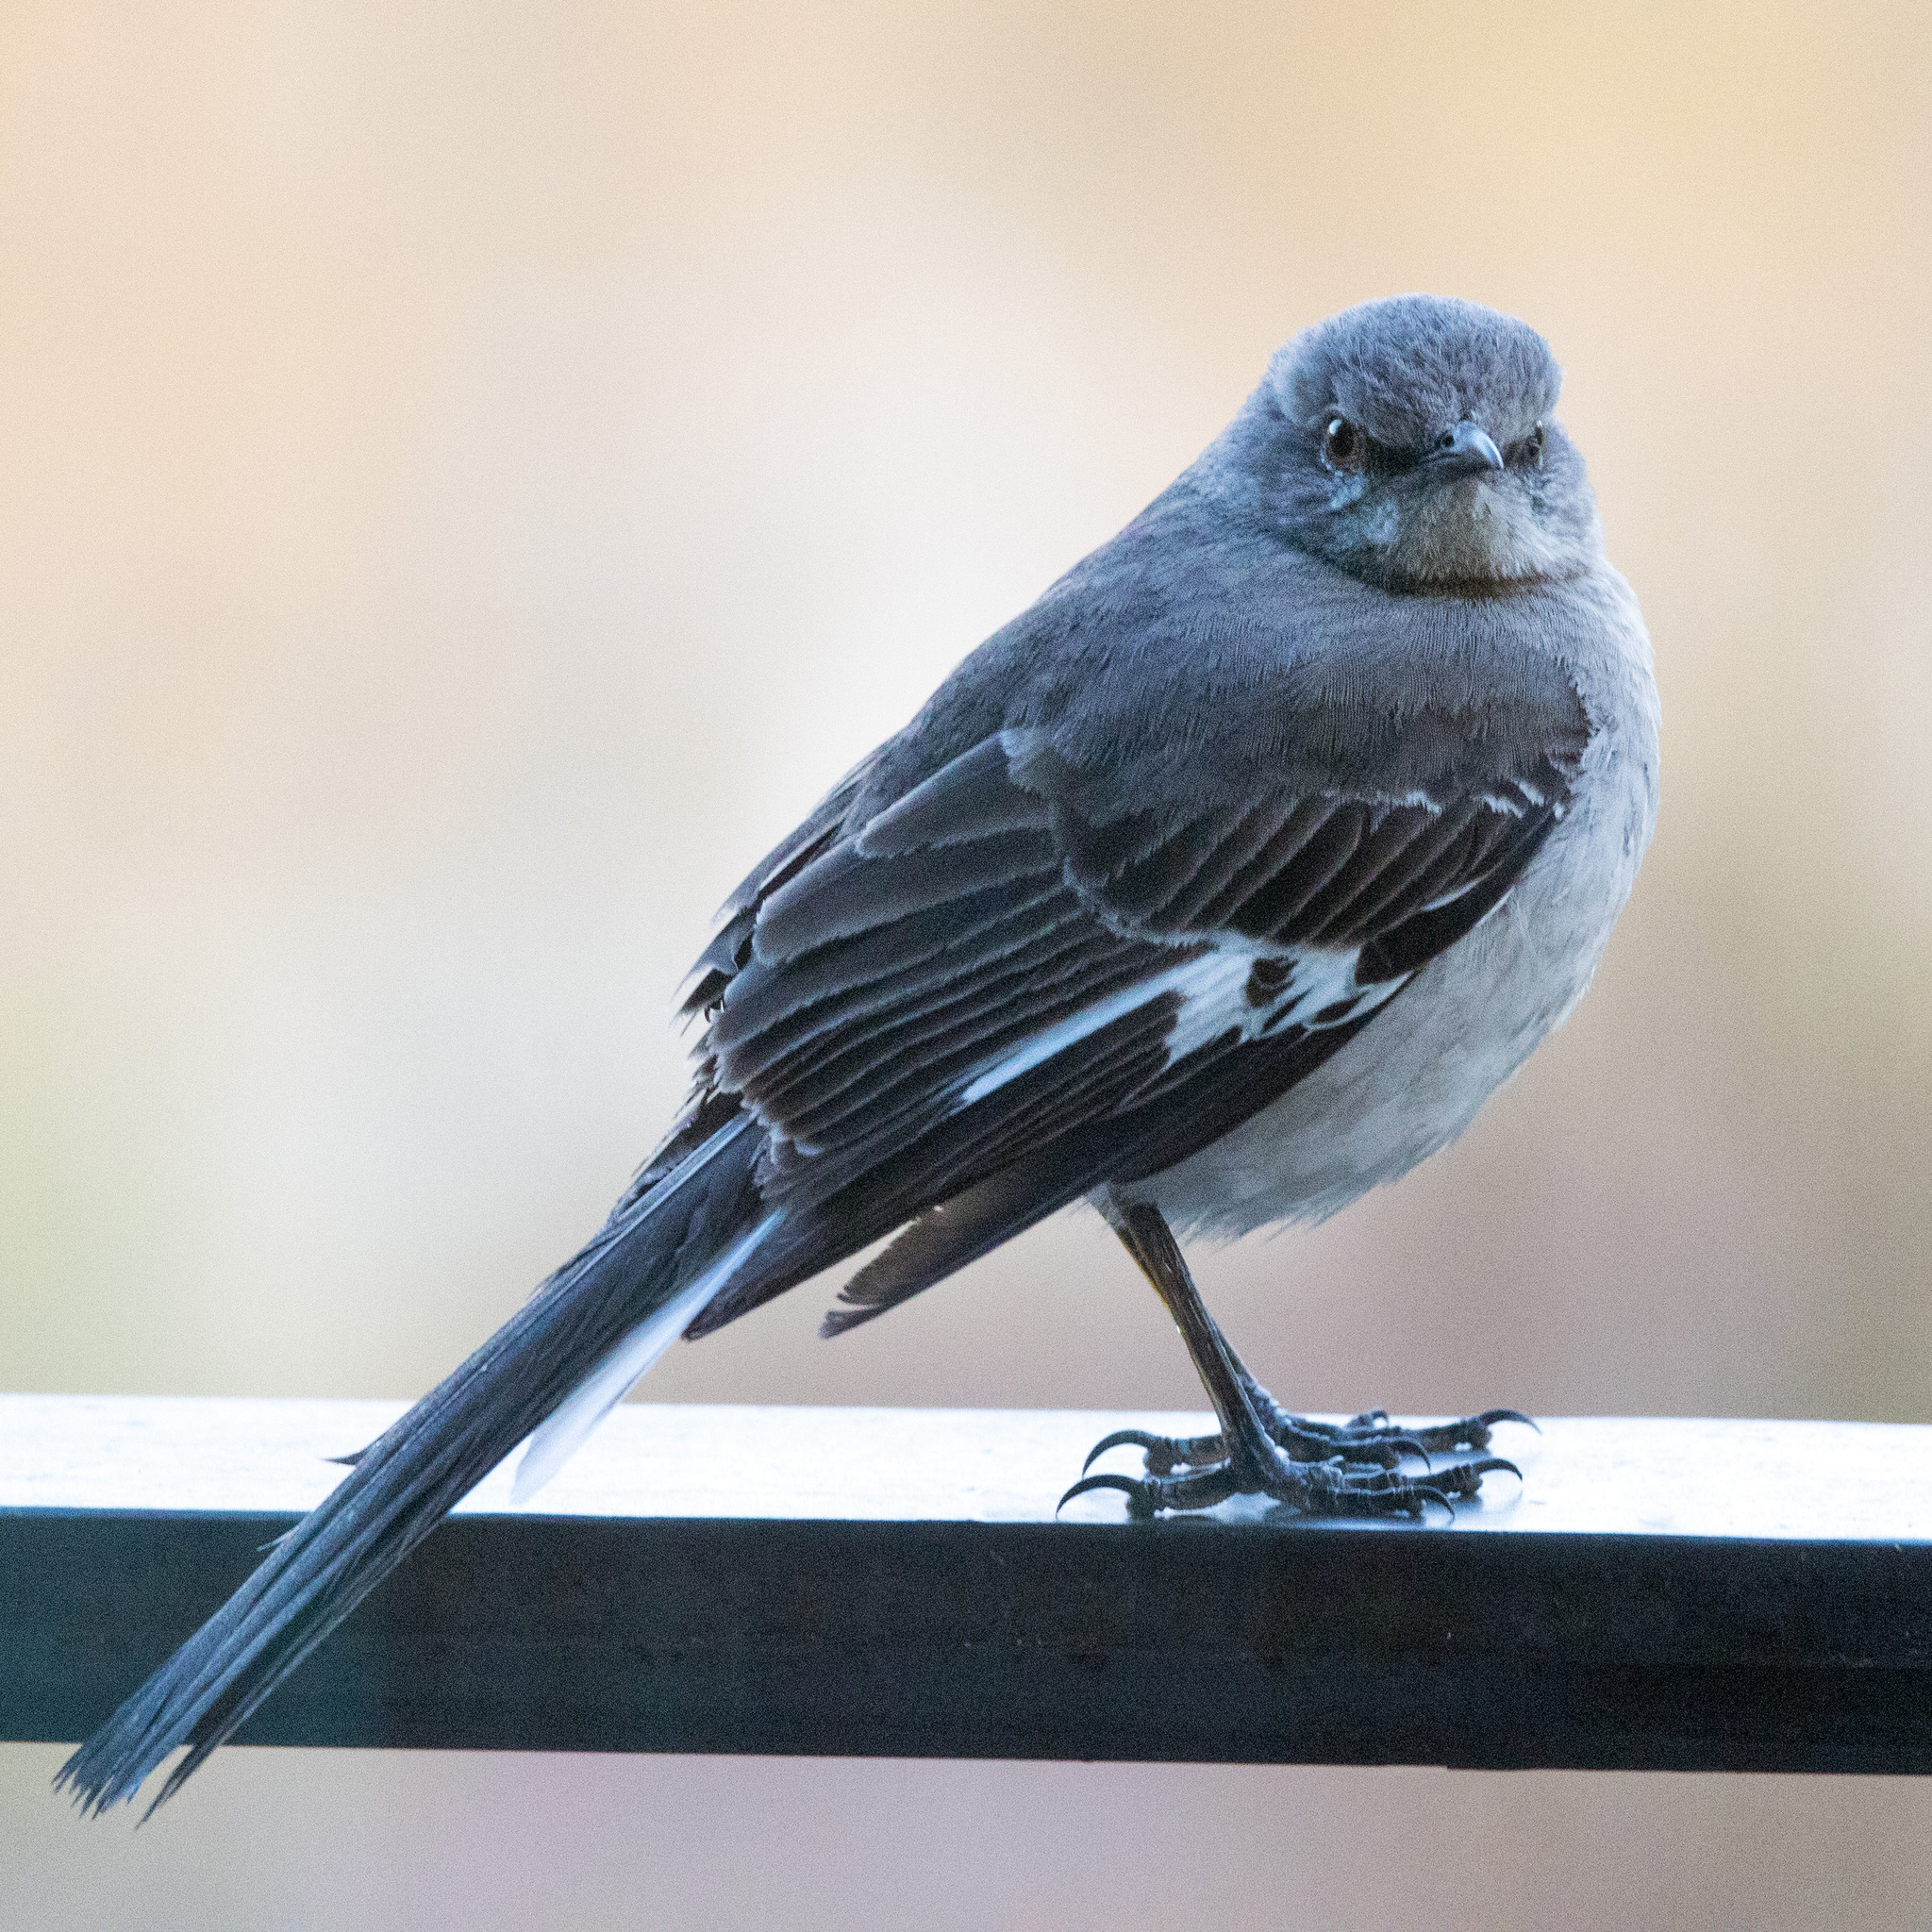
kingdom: Animalia
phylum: Chordata
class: Aves
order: Passeriformes
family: Mimidae
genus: Mimus
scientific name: Mimus polyglottos
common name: Northern mockingbird
